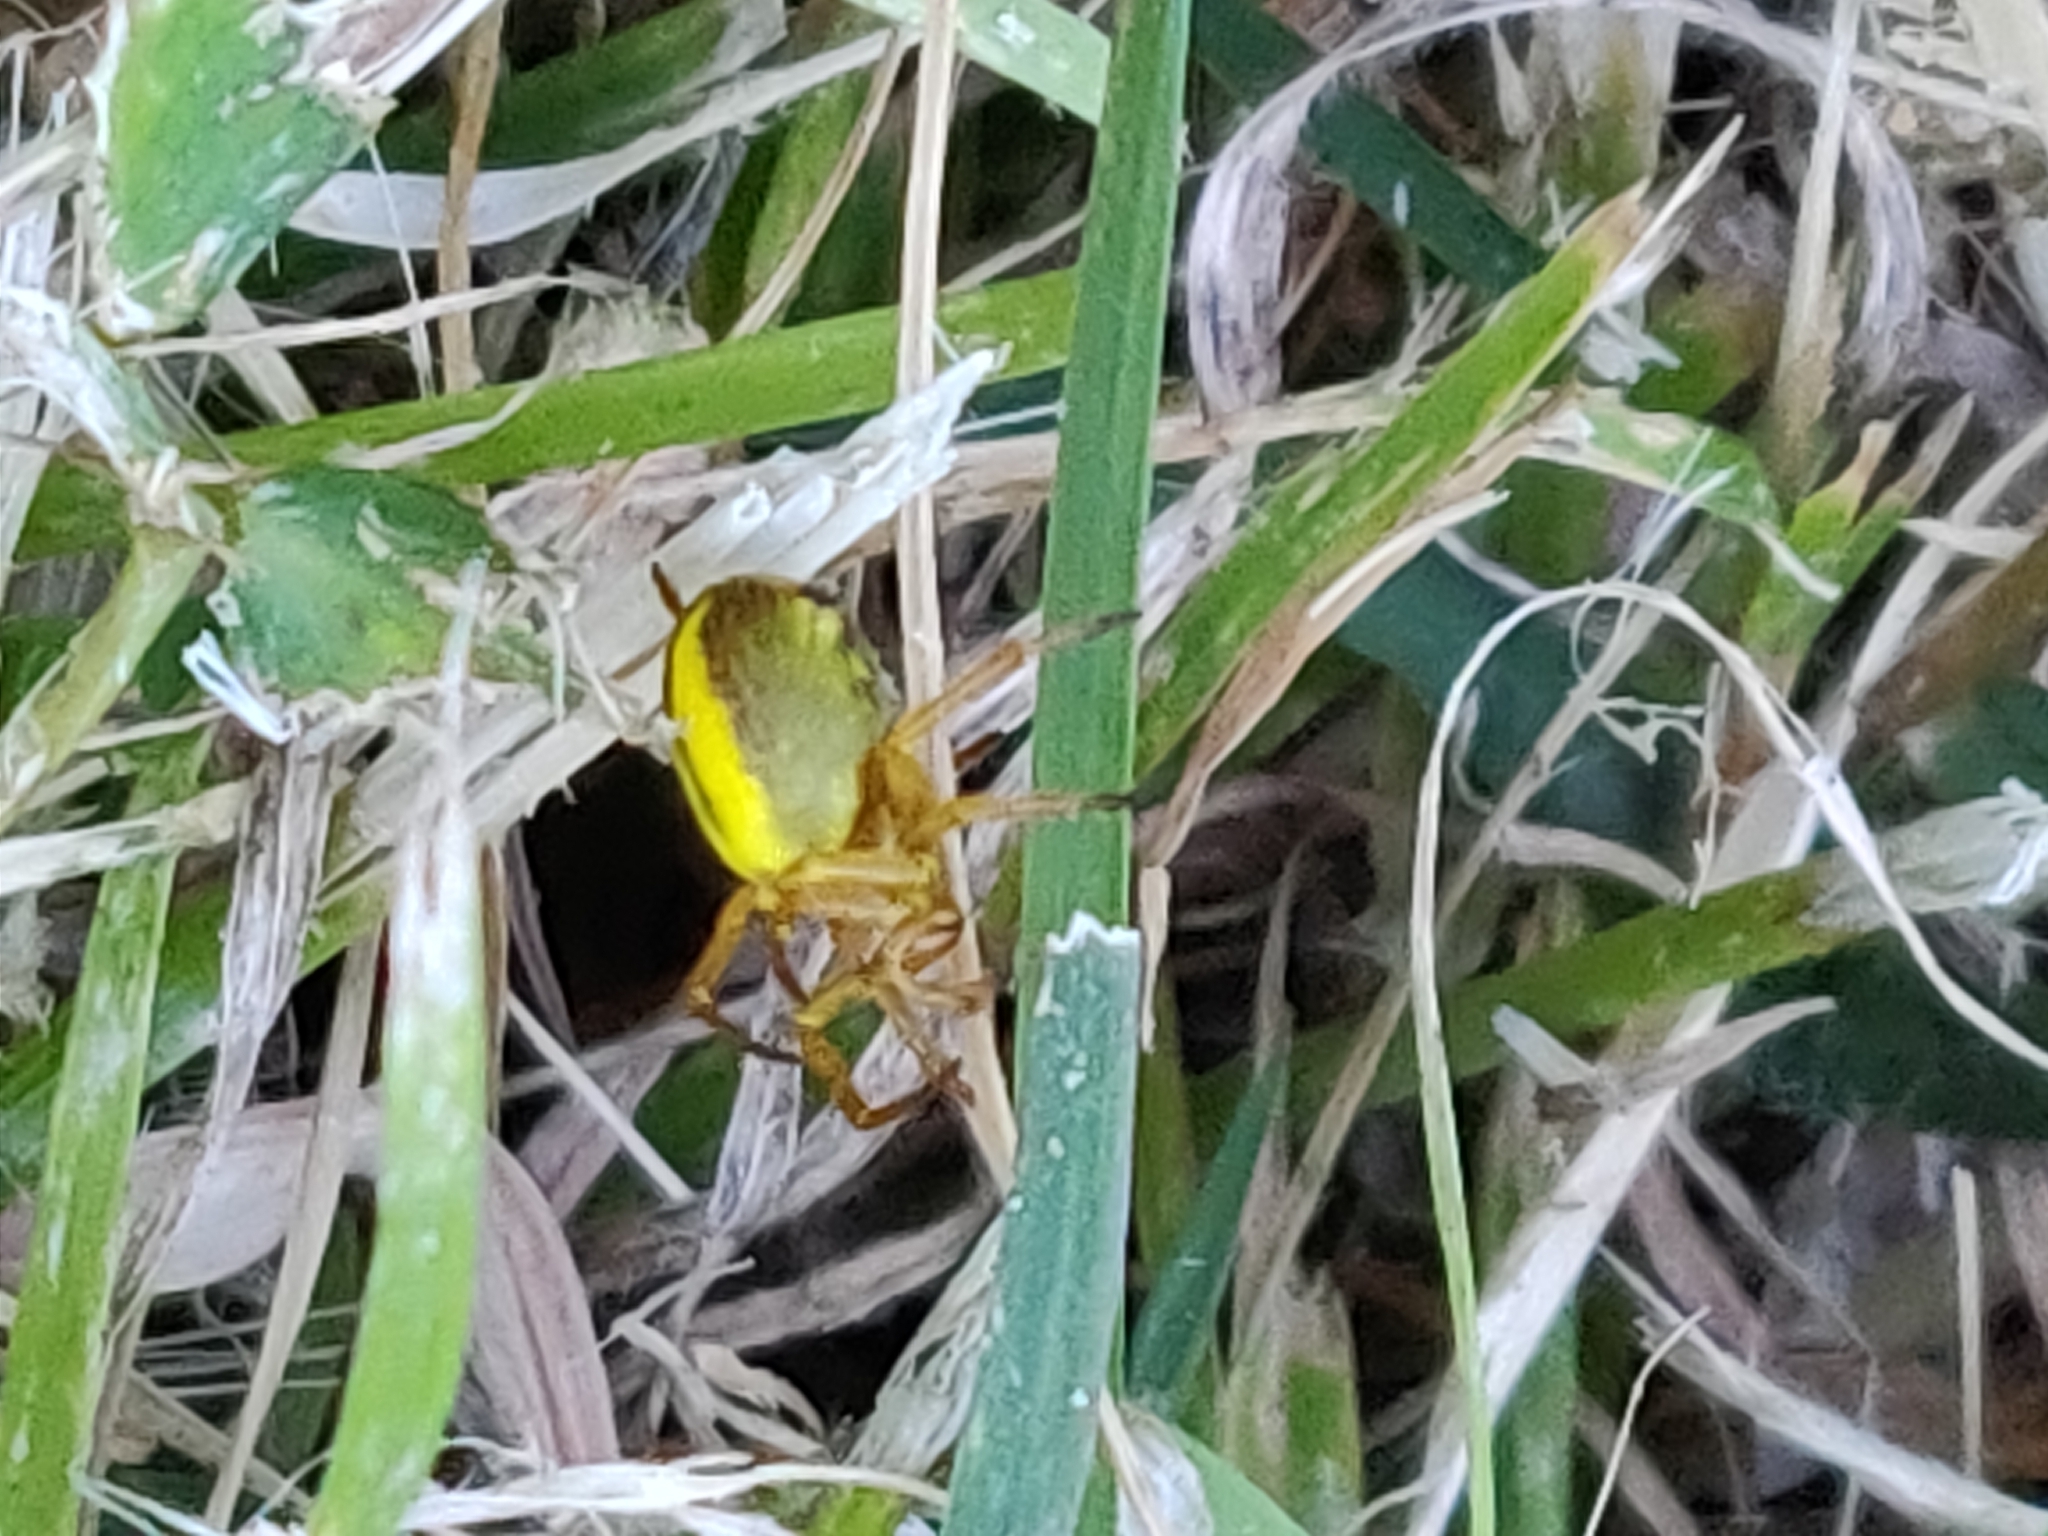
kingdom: Animalia
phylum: Arthropoda
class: Arachnida
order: Araneae
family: Araneidae
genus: Araniella
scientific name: Araniella displicata
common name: Sixspotted orb weaver
